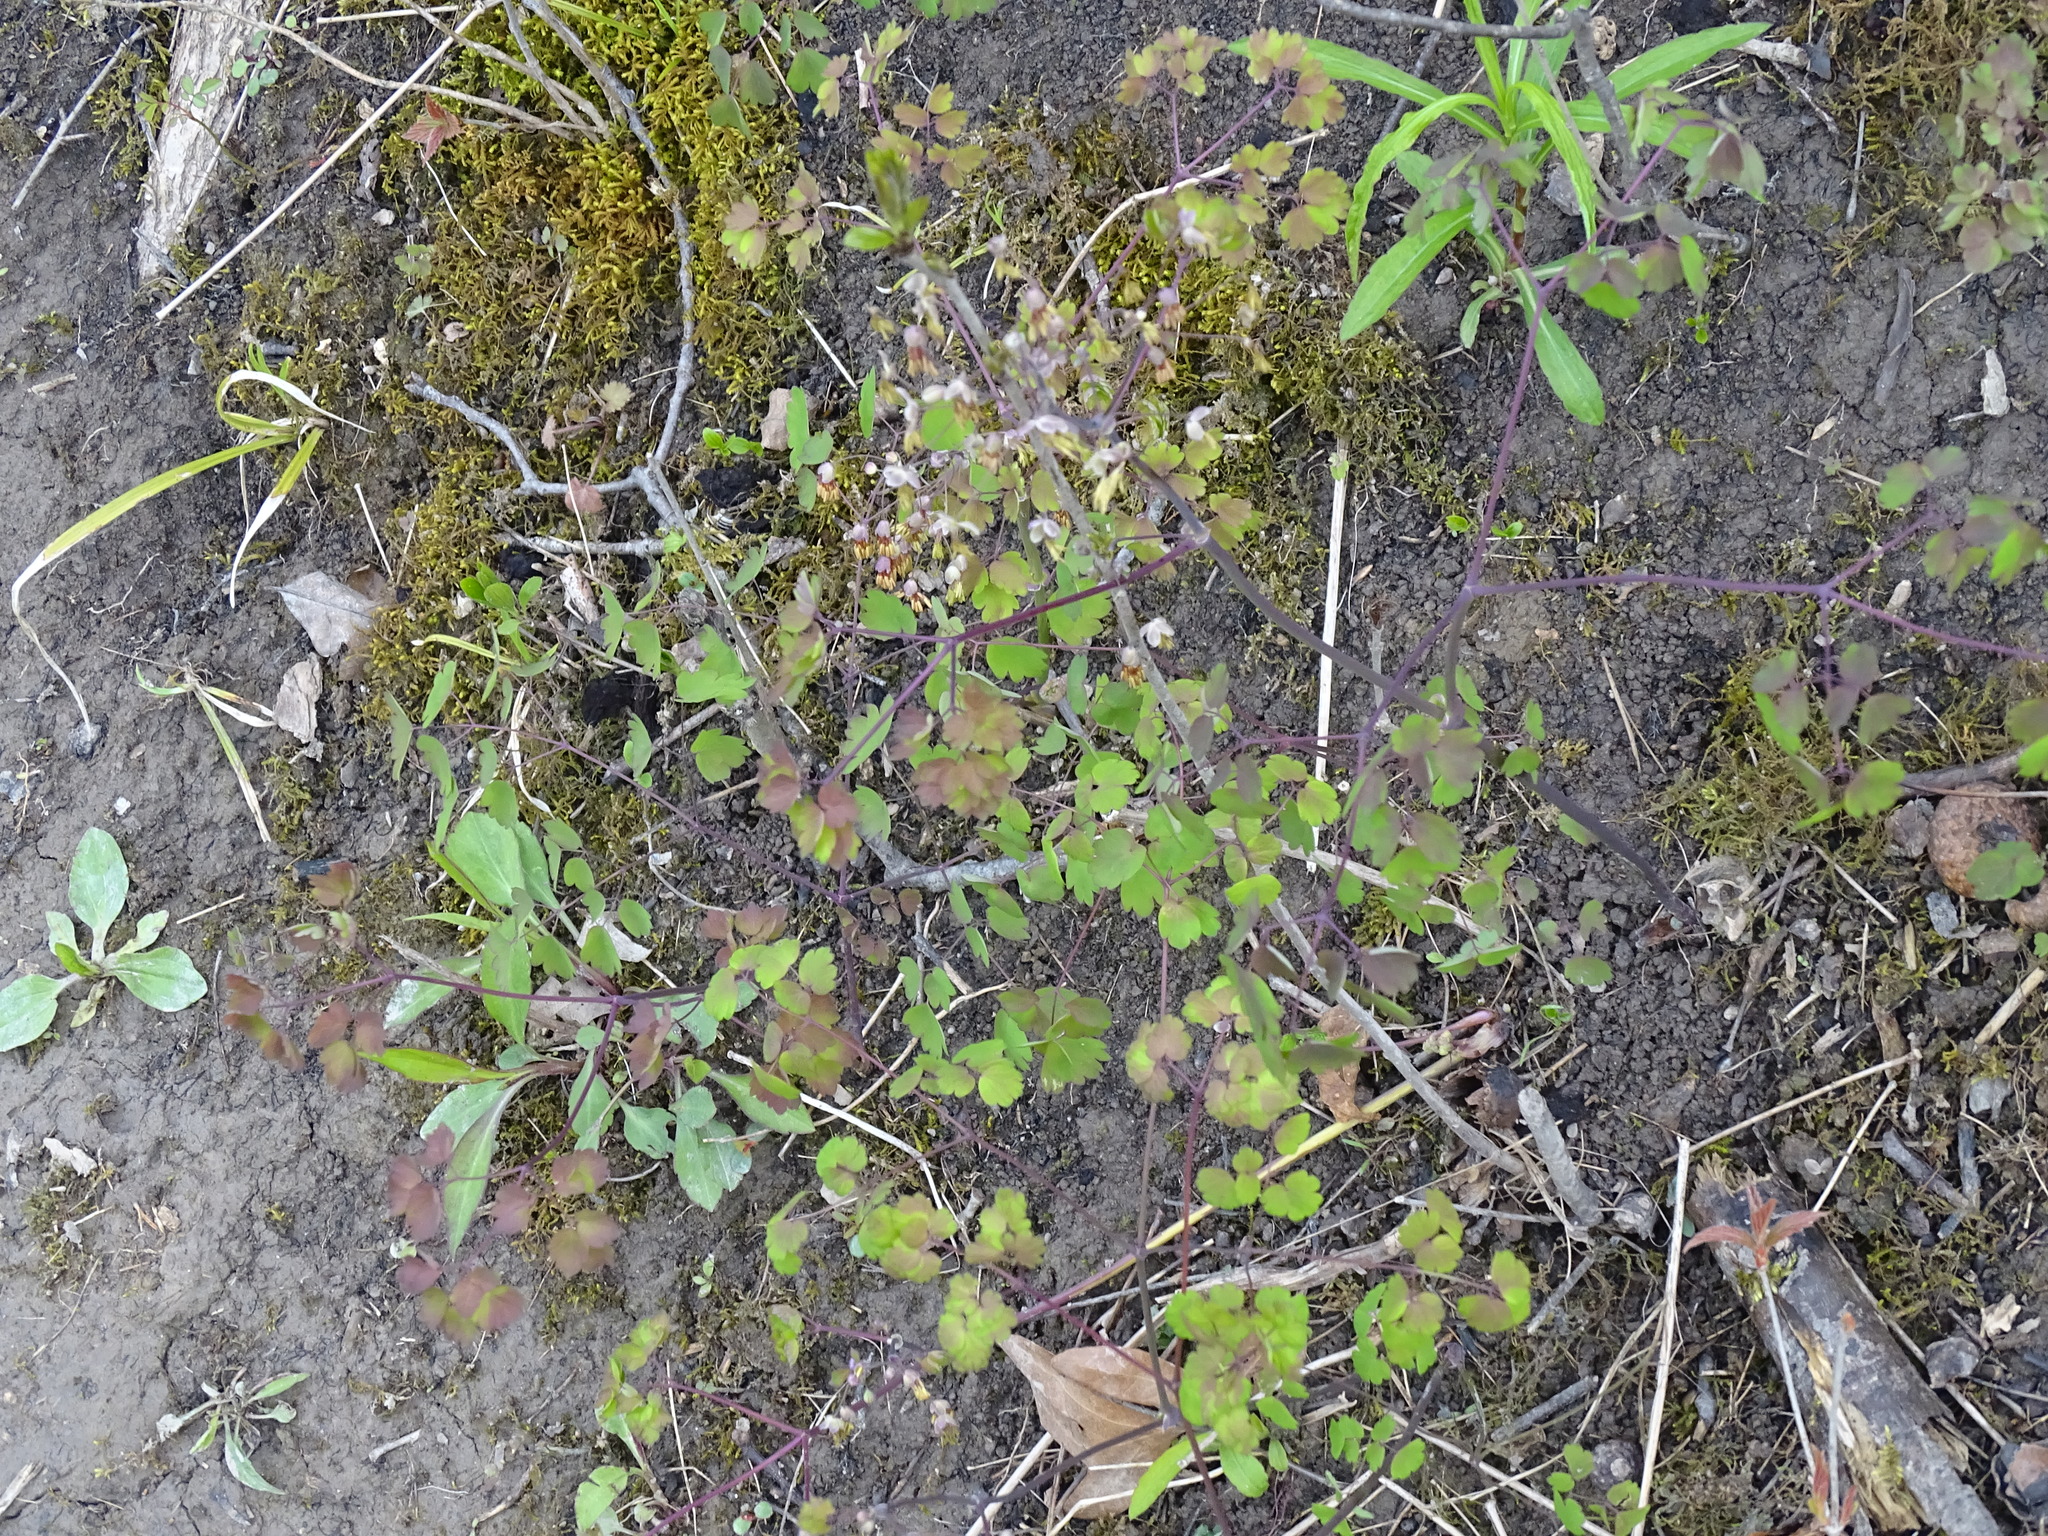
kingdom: Plantae
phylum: Tracheophyta
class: Magnoliopsida
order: Ranunculales
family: Ranunculaceae
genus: Thalictrum
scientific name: Thalictrum dioicum
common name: Early meadow-rue
